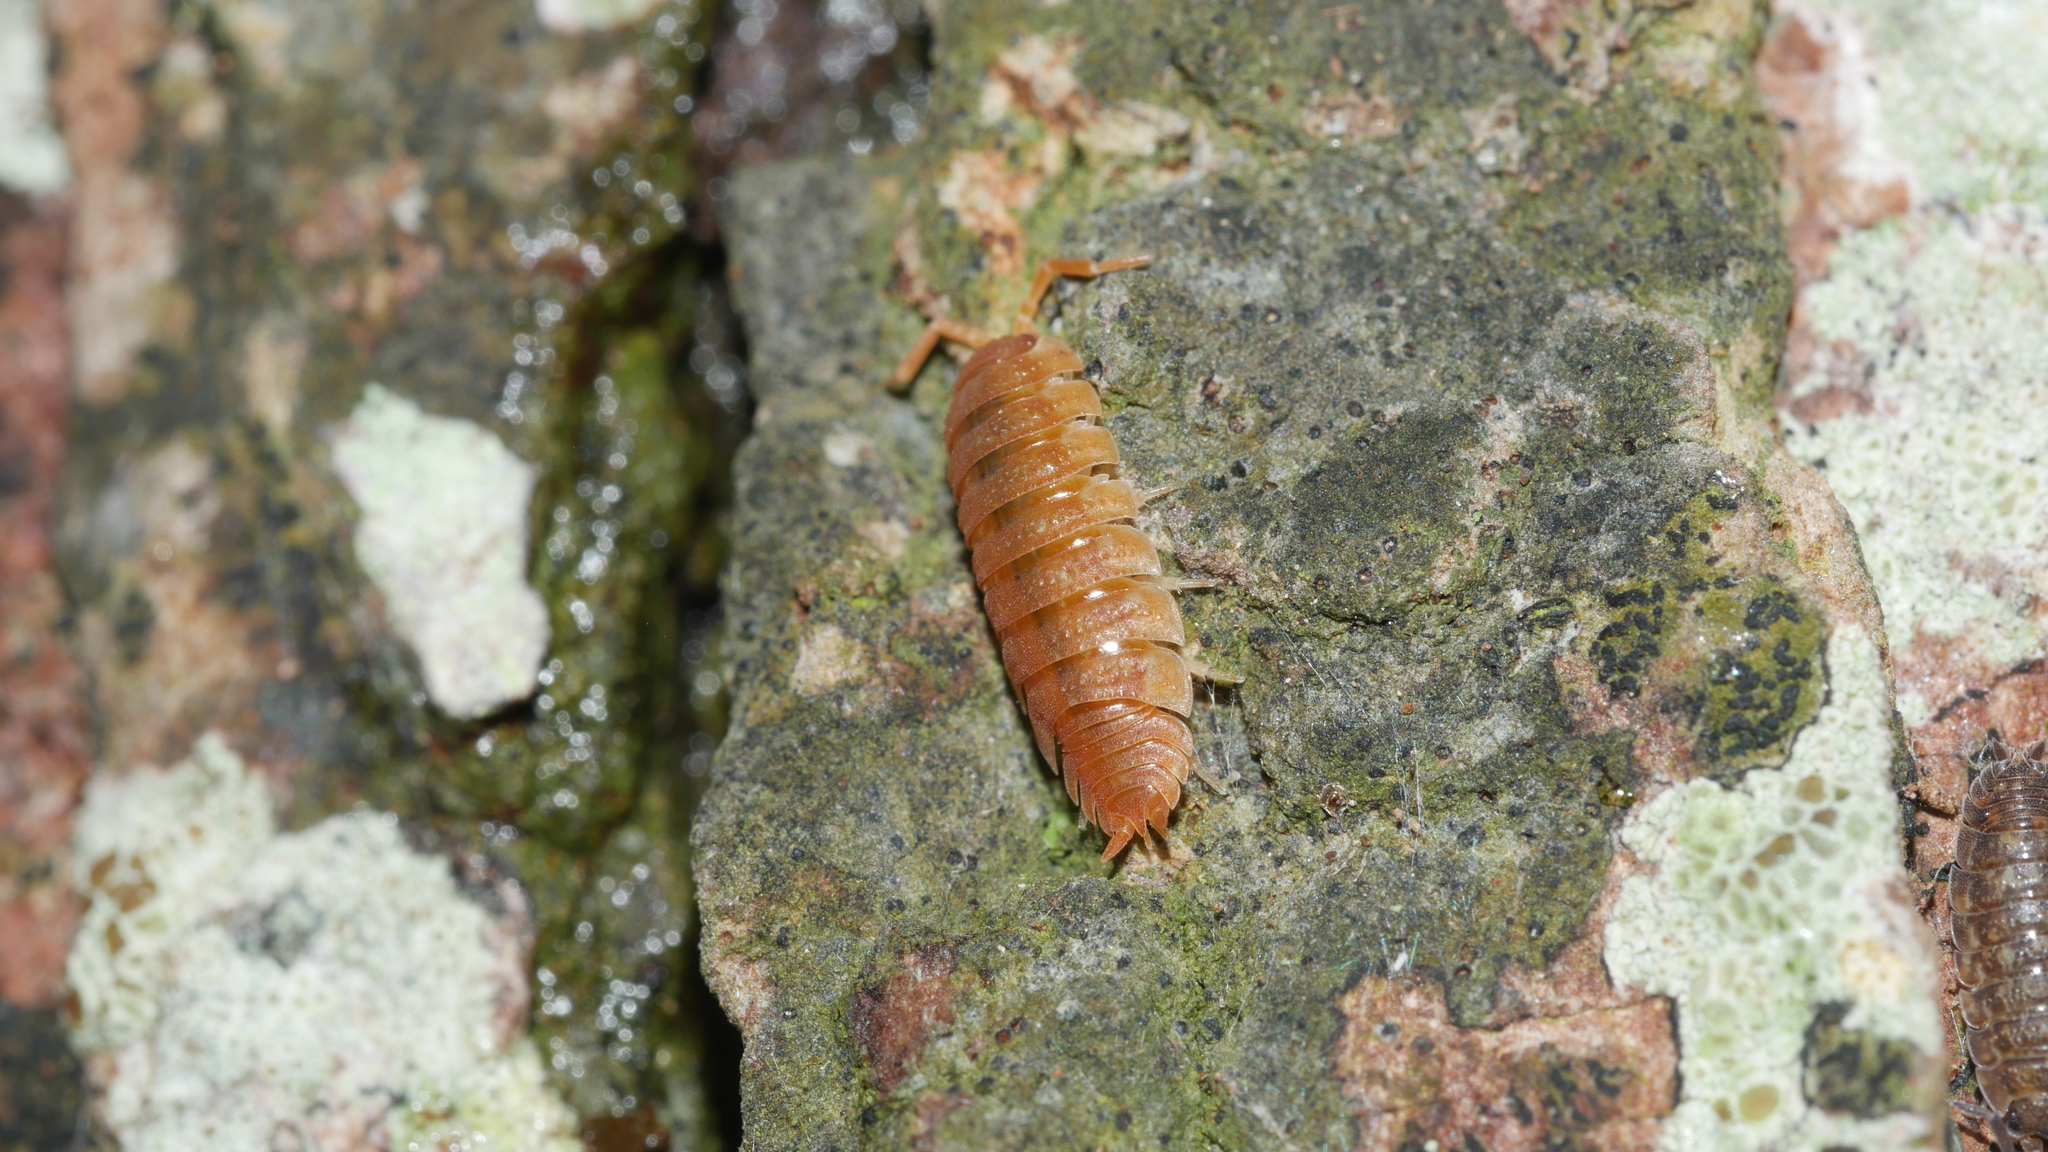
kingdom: Animalia
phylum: Arthropoda
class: Malacostraca
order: Isopoda
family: Porcellionidae
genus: Porcellio
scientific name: Porcellio scaber
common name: Common rough woodlouse
